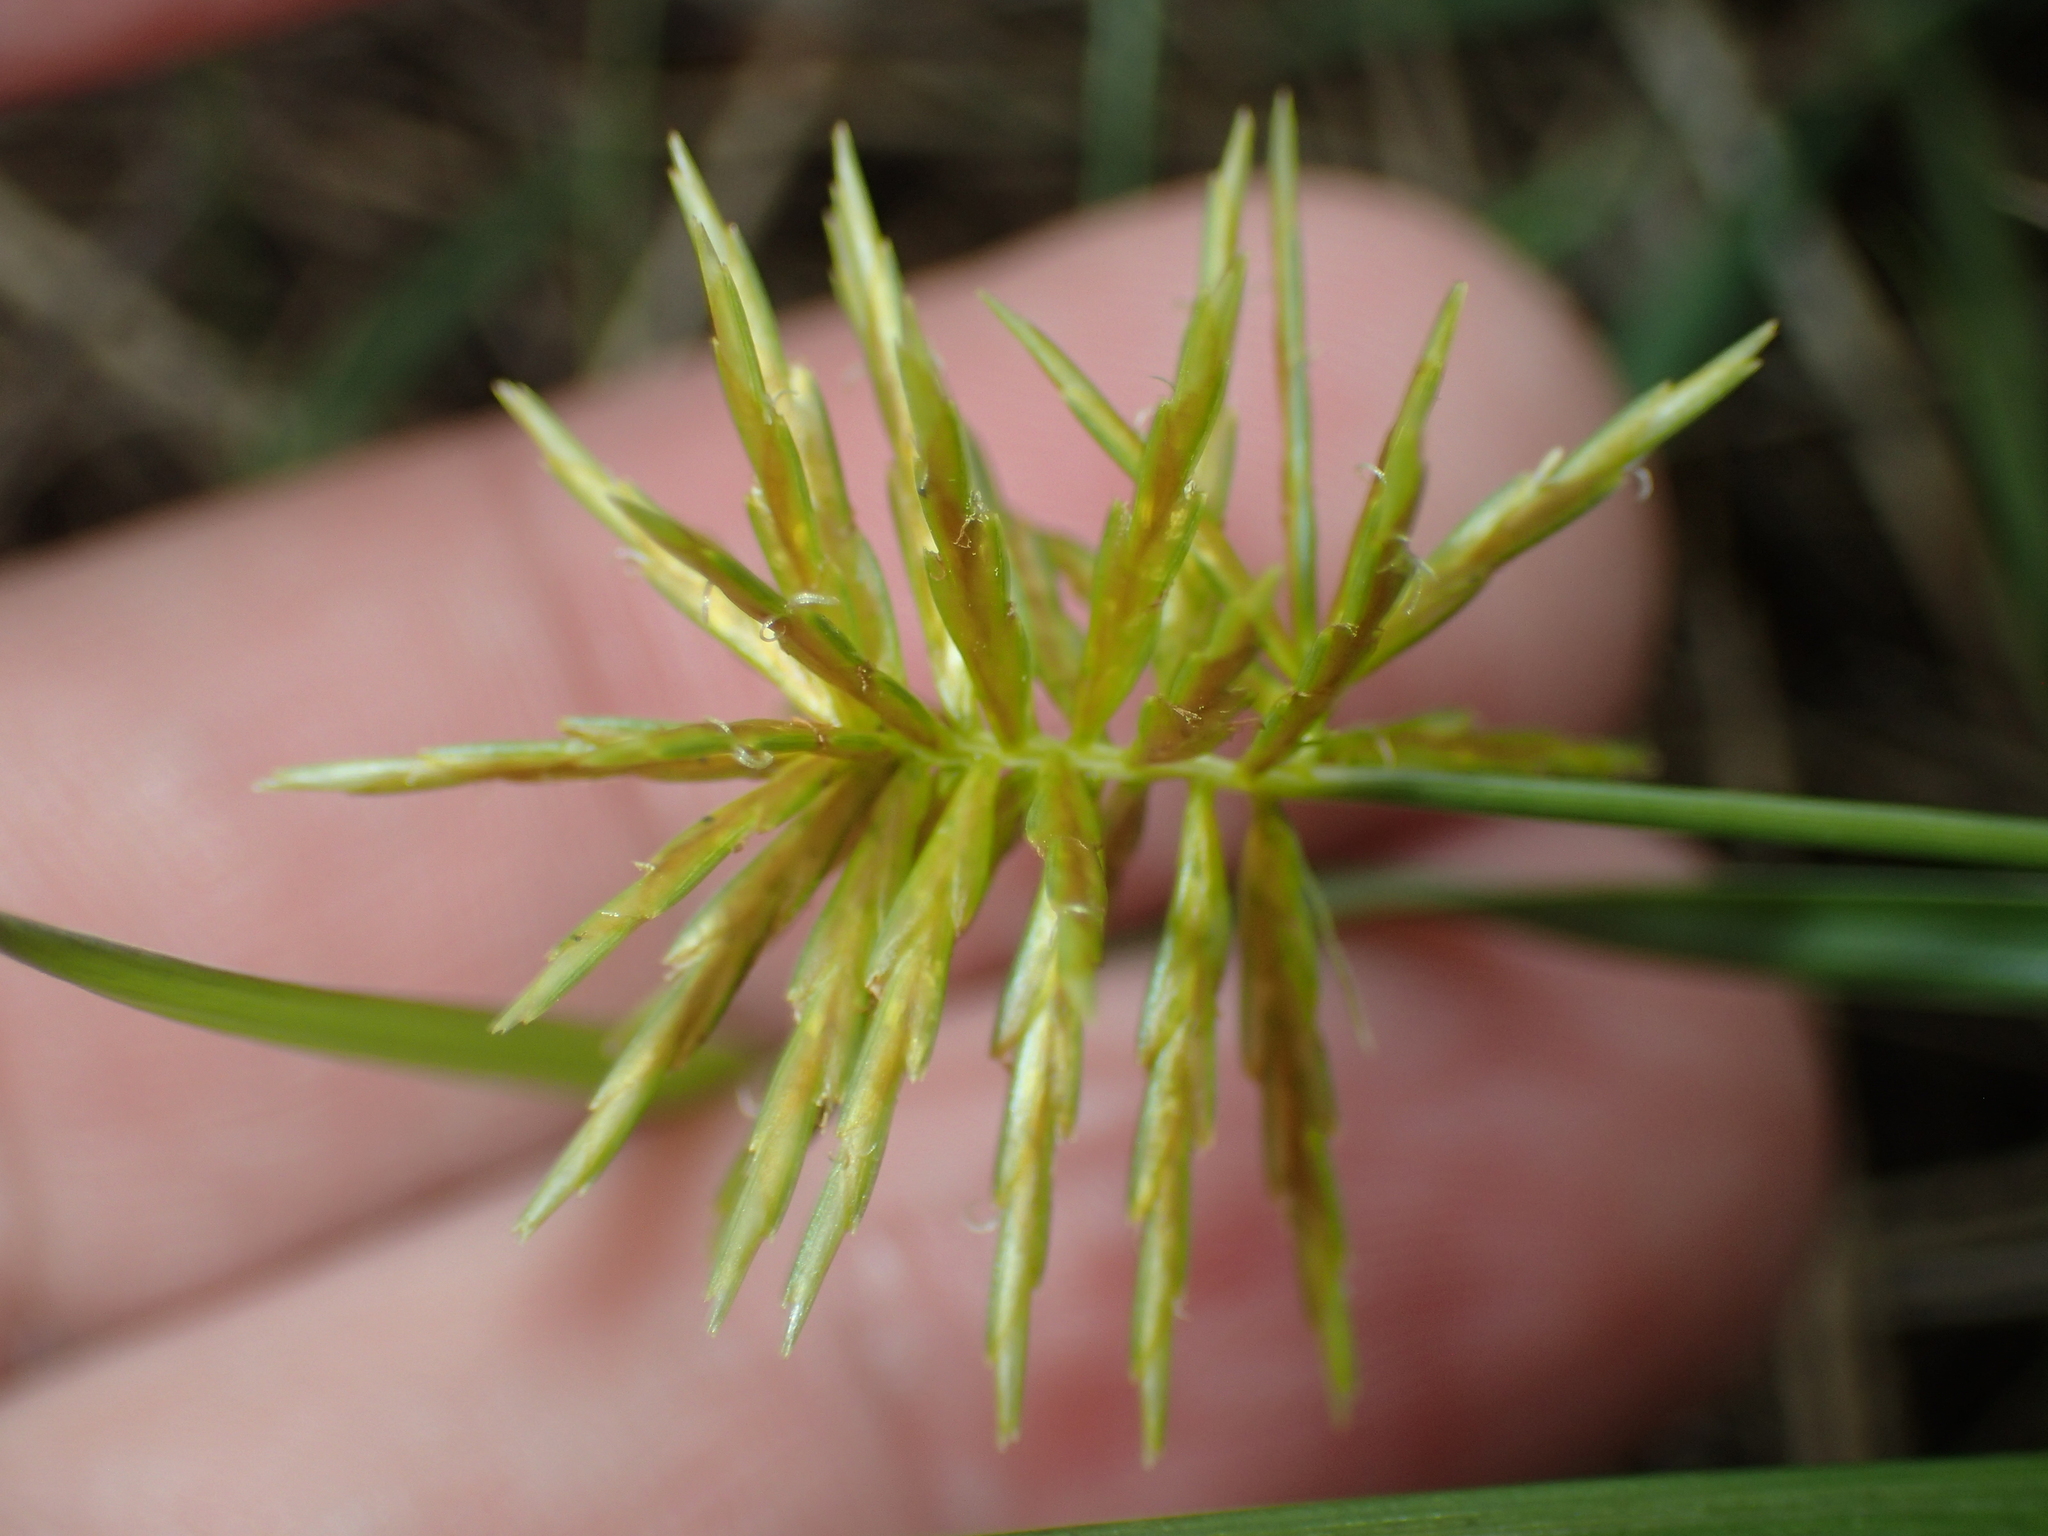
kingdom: Plantae
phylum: Tracheophyta
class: Liliopsida
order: Poales
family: Cyperaceae
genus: Cyperus
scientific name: Cyperus strigosus
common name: False nutsedge
